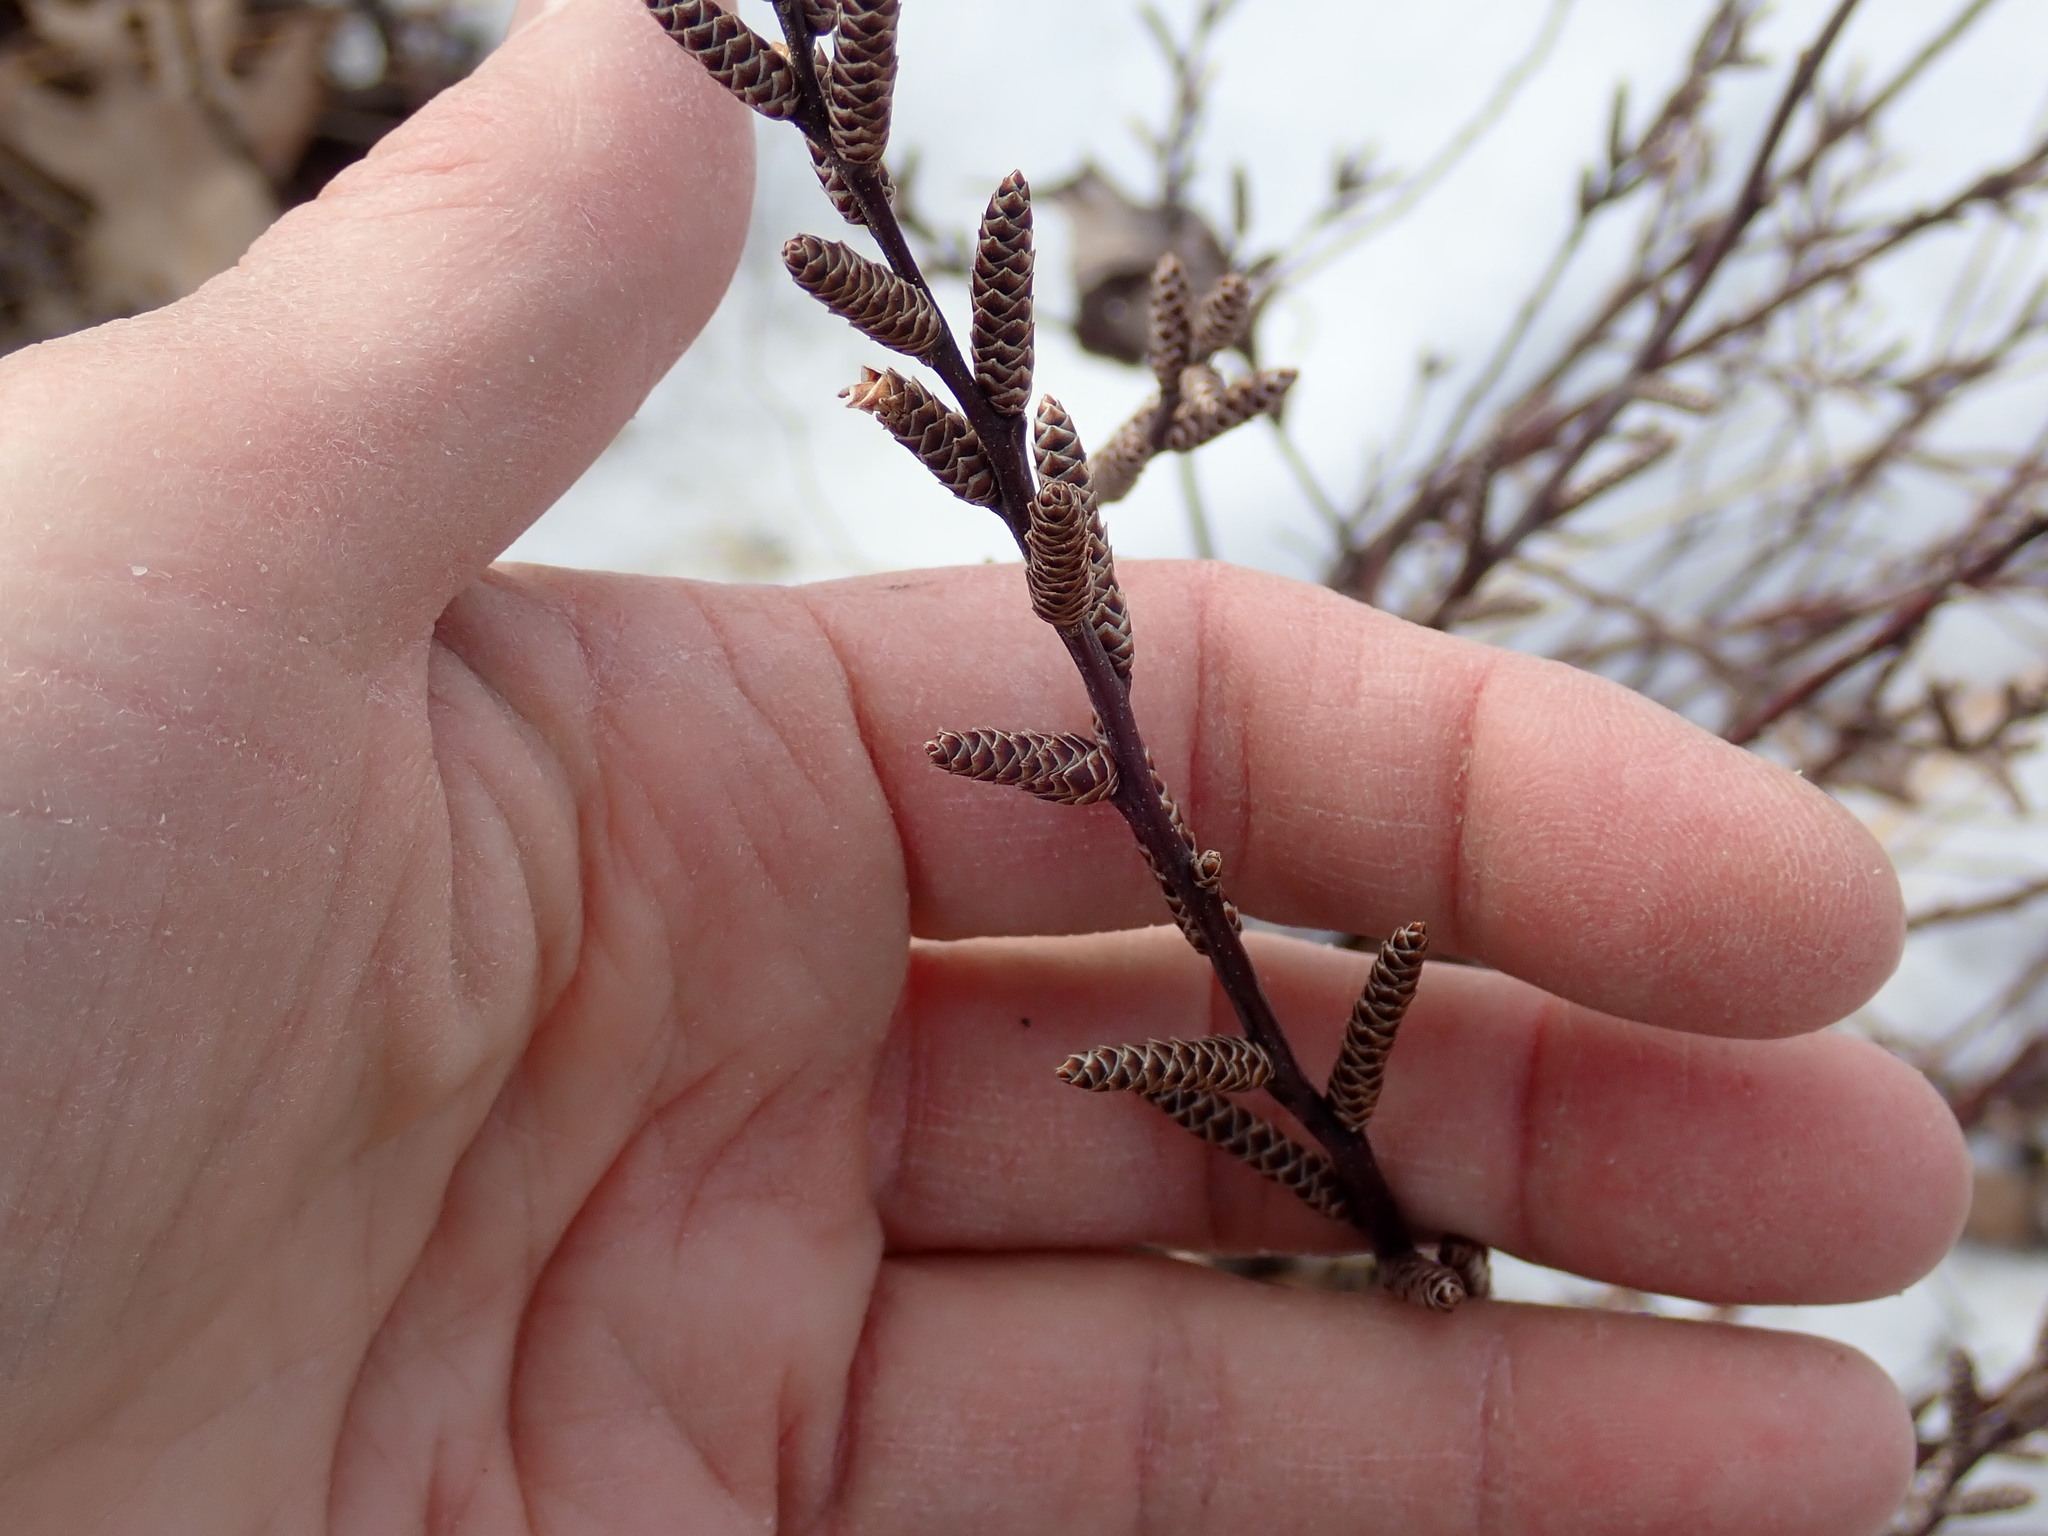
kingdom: Plantae
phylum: Tracheophyta
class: Magnoliopsida
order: Fagales
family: Myricaceae
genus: Myrica
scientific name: Myrica gale
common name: Sweet gale
